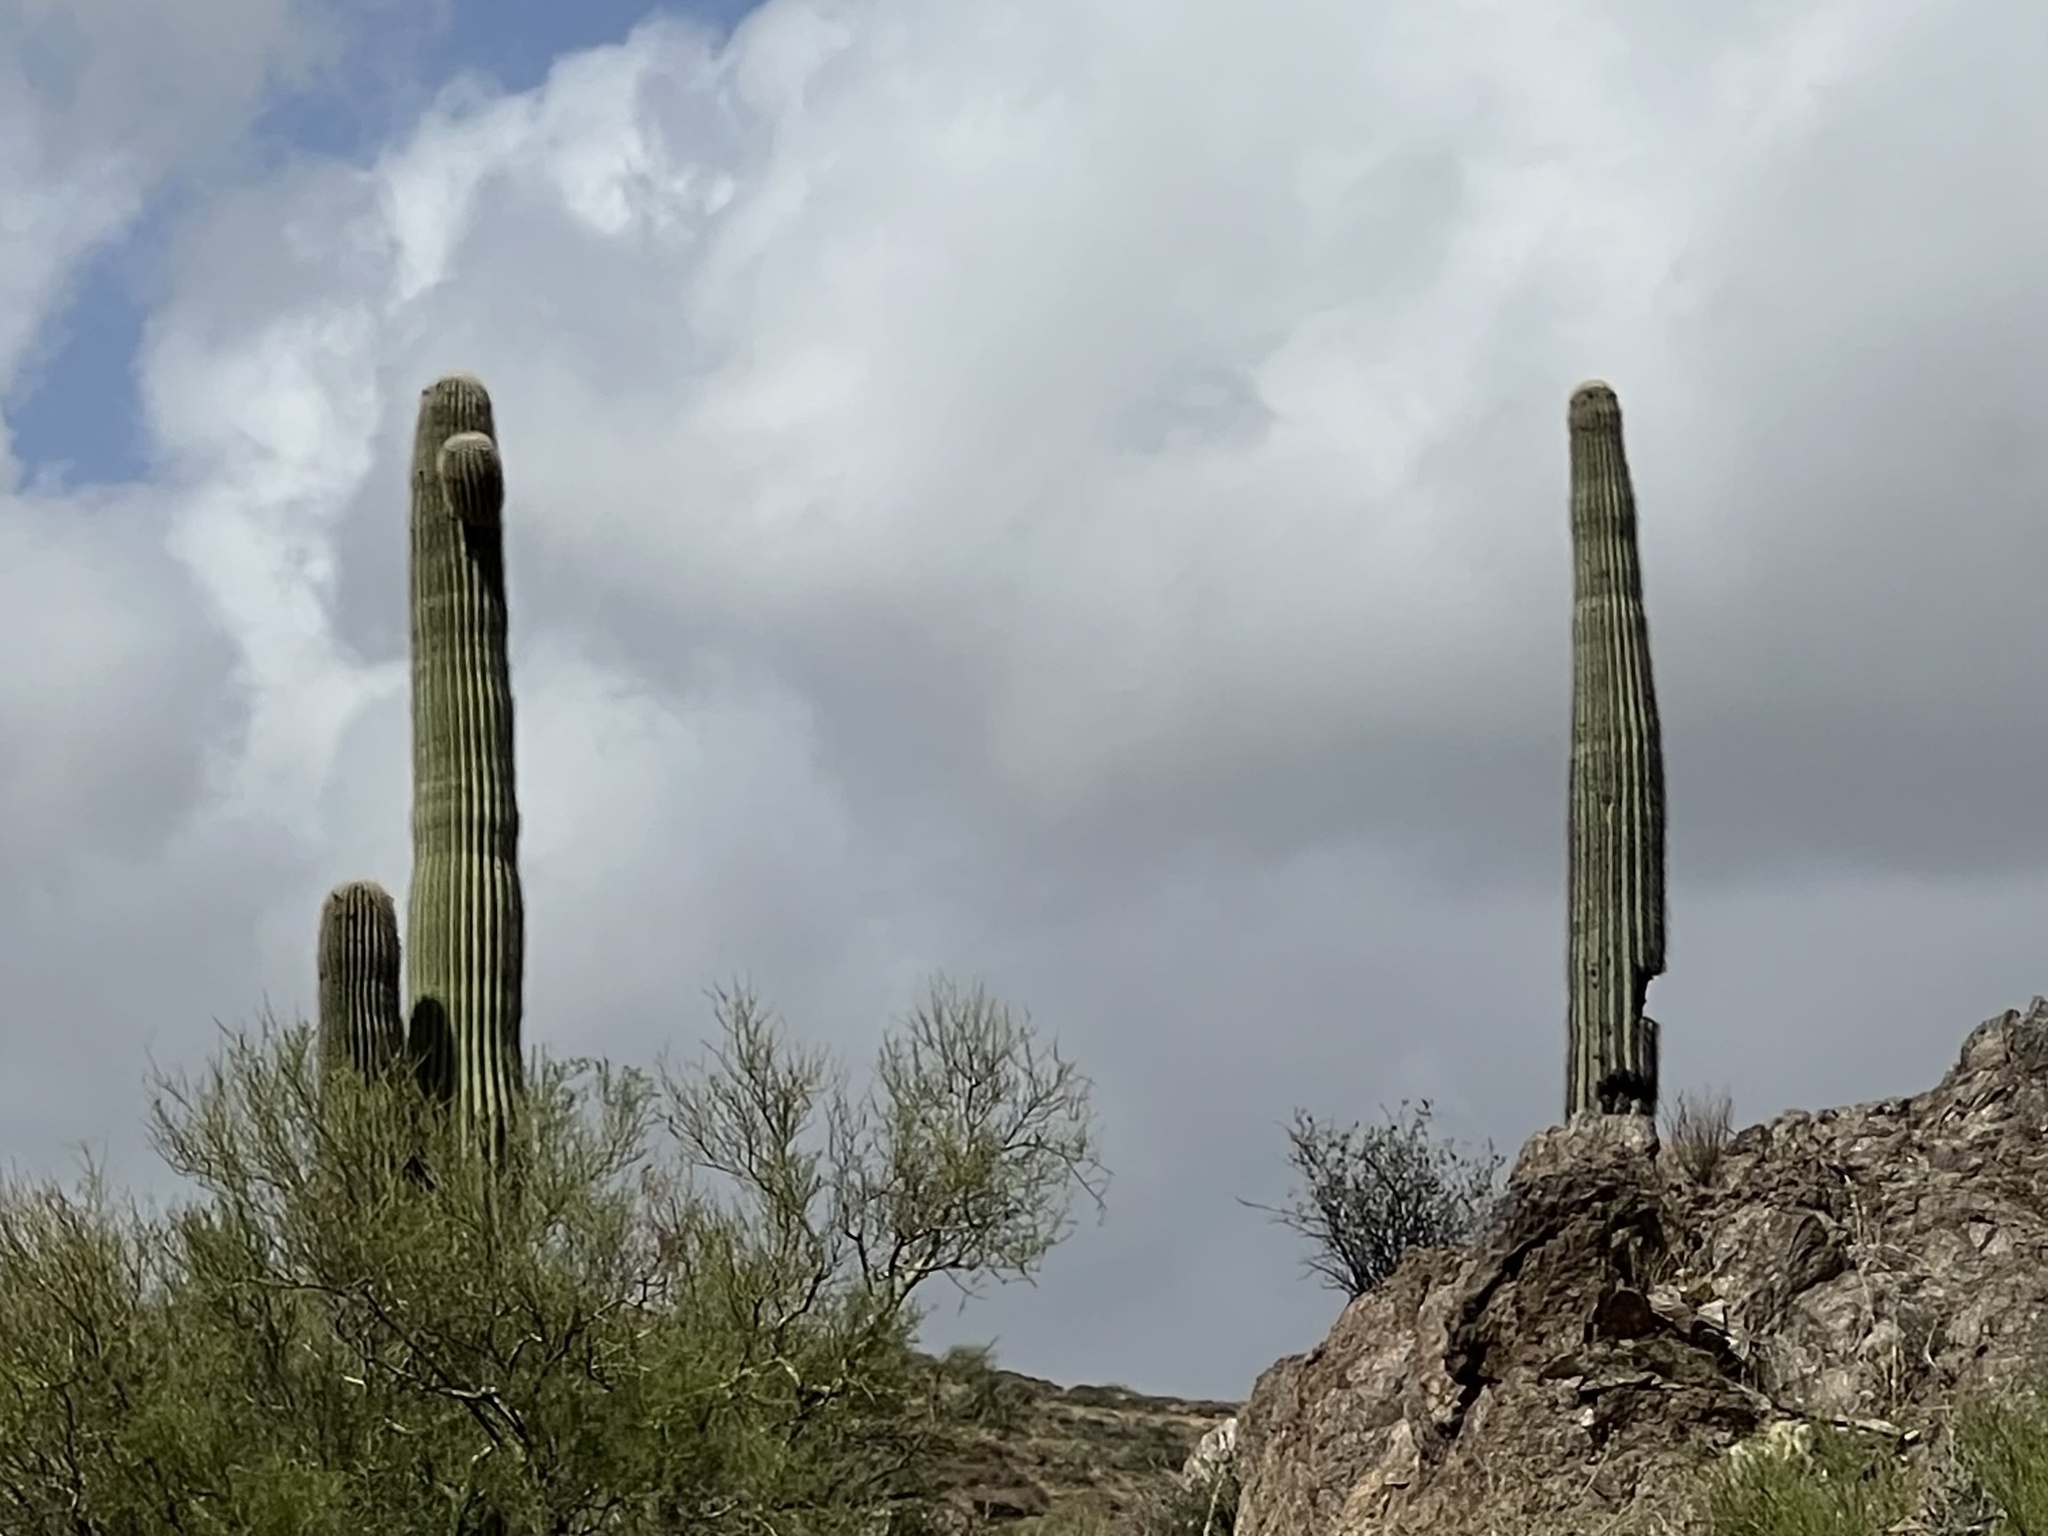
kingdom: Plantae
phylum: Tracheophyta
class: Magnoliopsida
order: Caryophyllales
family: Cactaceae
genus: Carnegiea
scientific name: Carnegiea gigantea
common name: Saguaro
